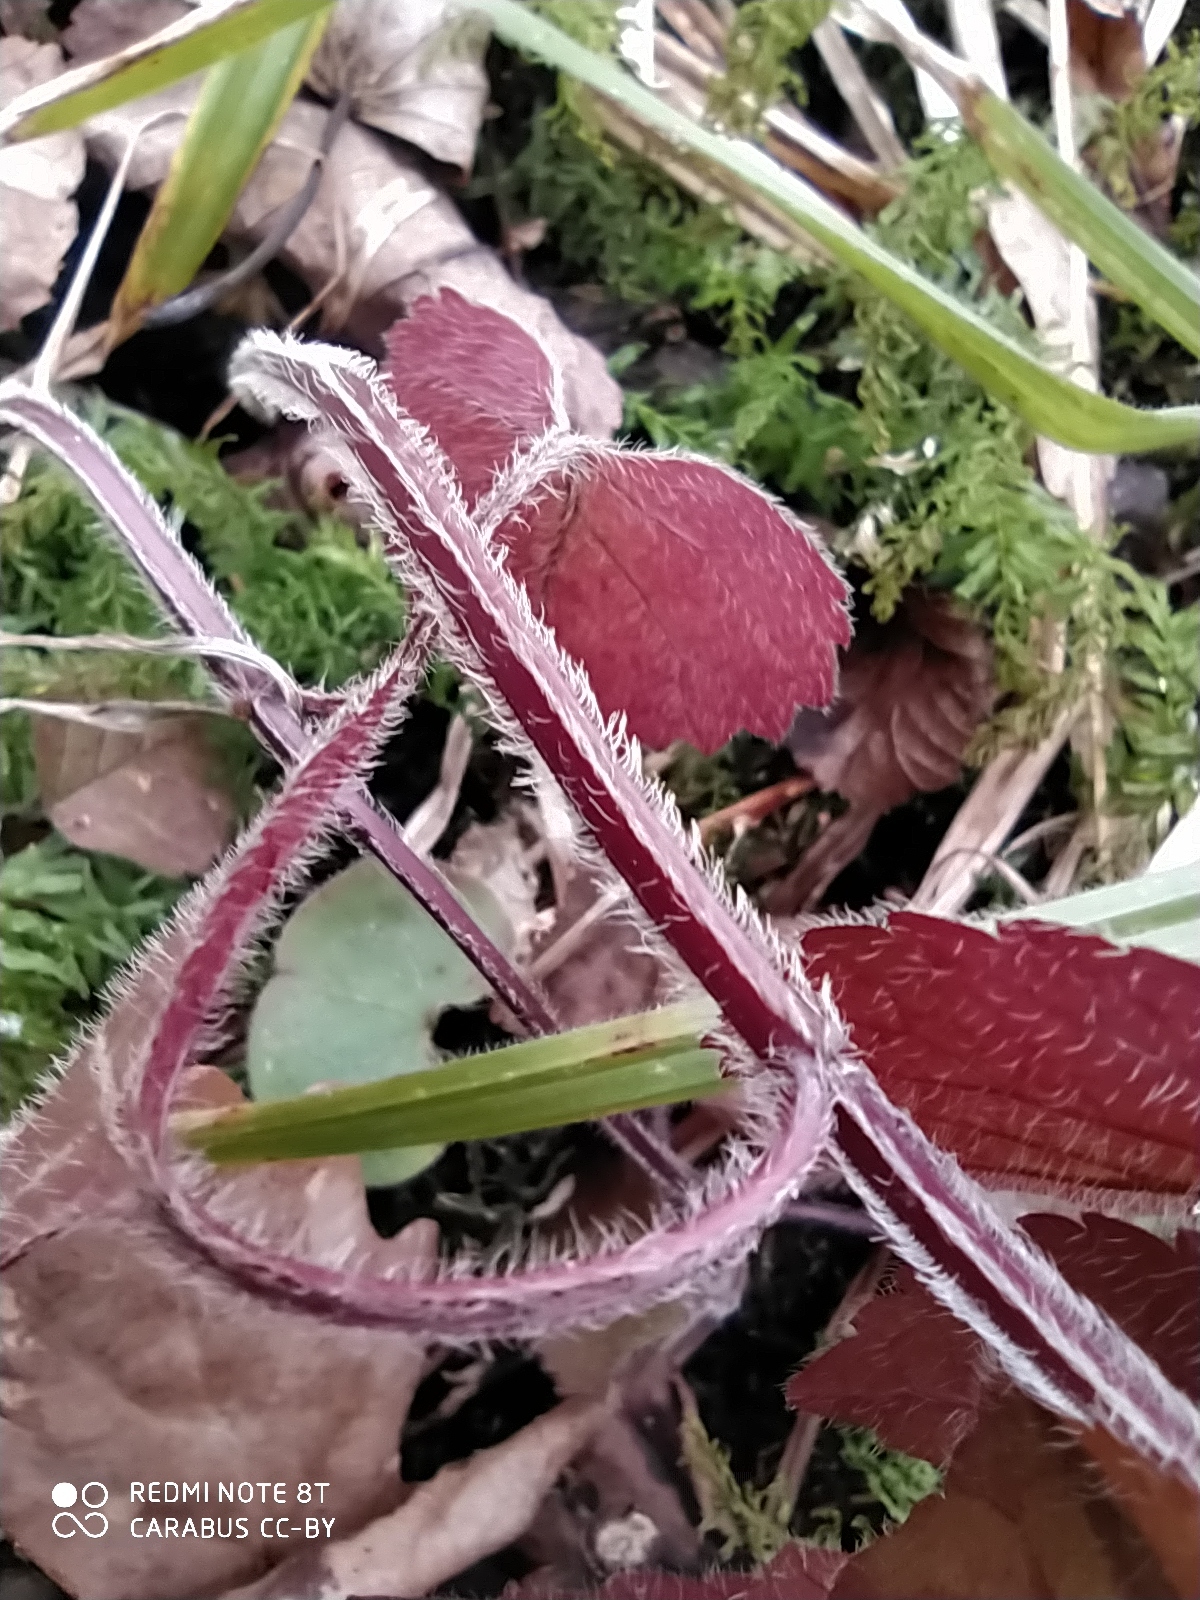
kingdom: Plantae
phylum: Tracheophyta
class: Magnoliopsida
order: Lamiales
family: Lamiaceae
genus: Lamium
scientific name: Lamium galeobdolon
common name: Yellow archangel
